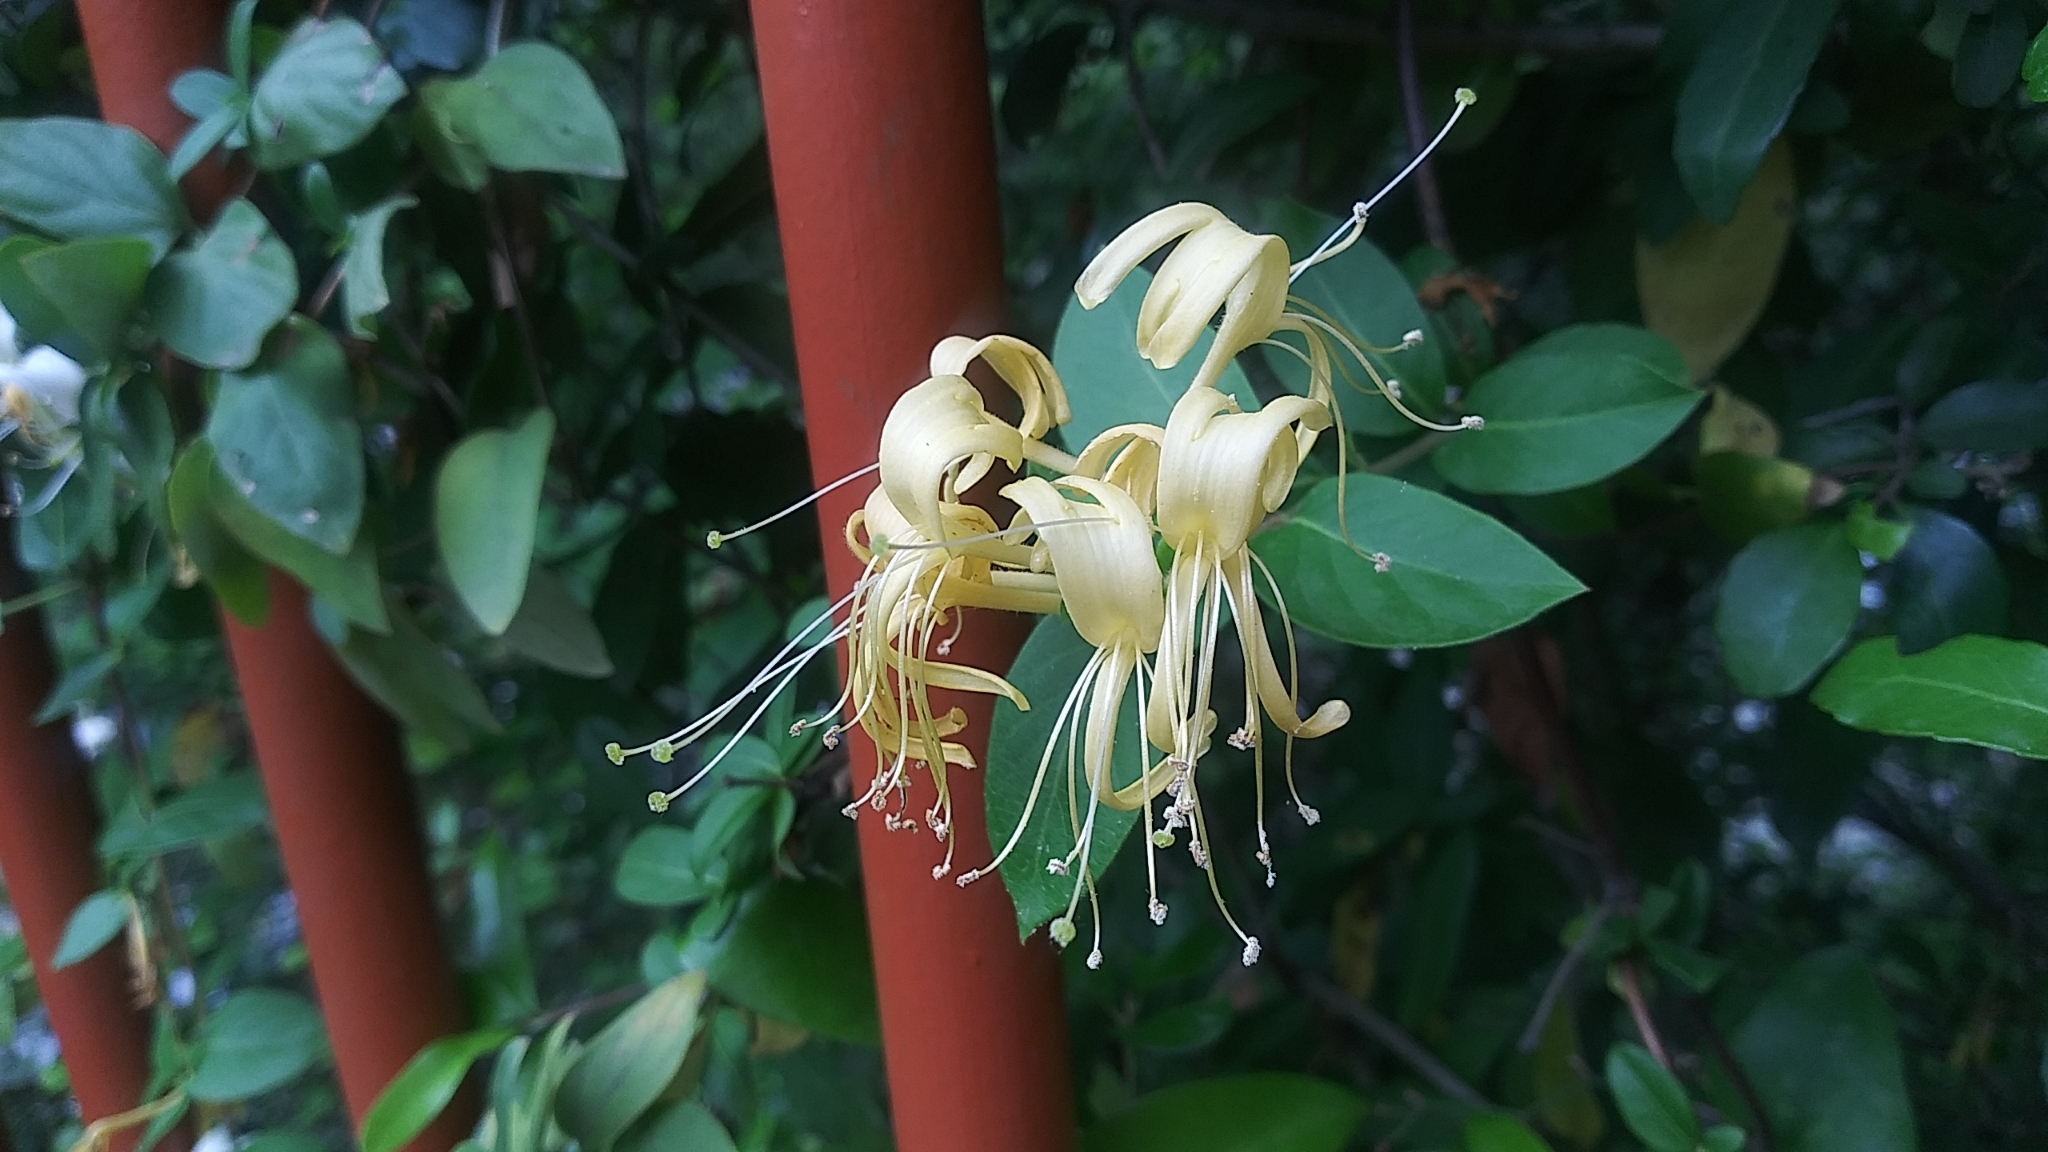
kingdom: Plantae
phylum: Tracheophyta
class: Magnoliopsida
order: Dipsacales
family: Caprifoliaceae
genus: Lonicera
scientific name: Lonicera japonica
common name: Japanese honeysuckle
